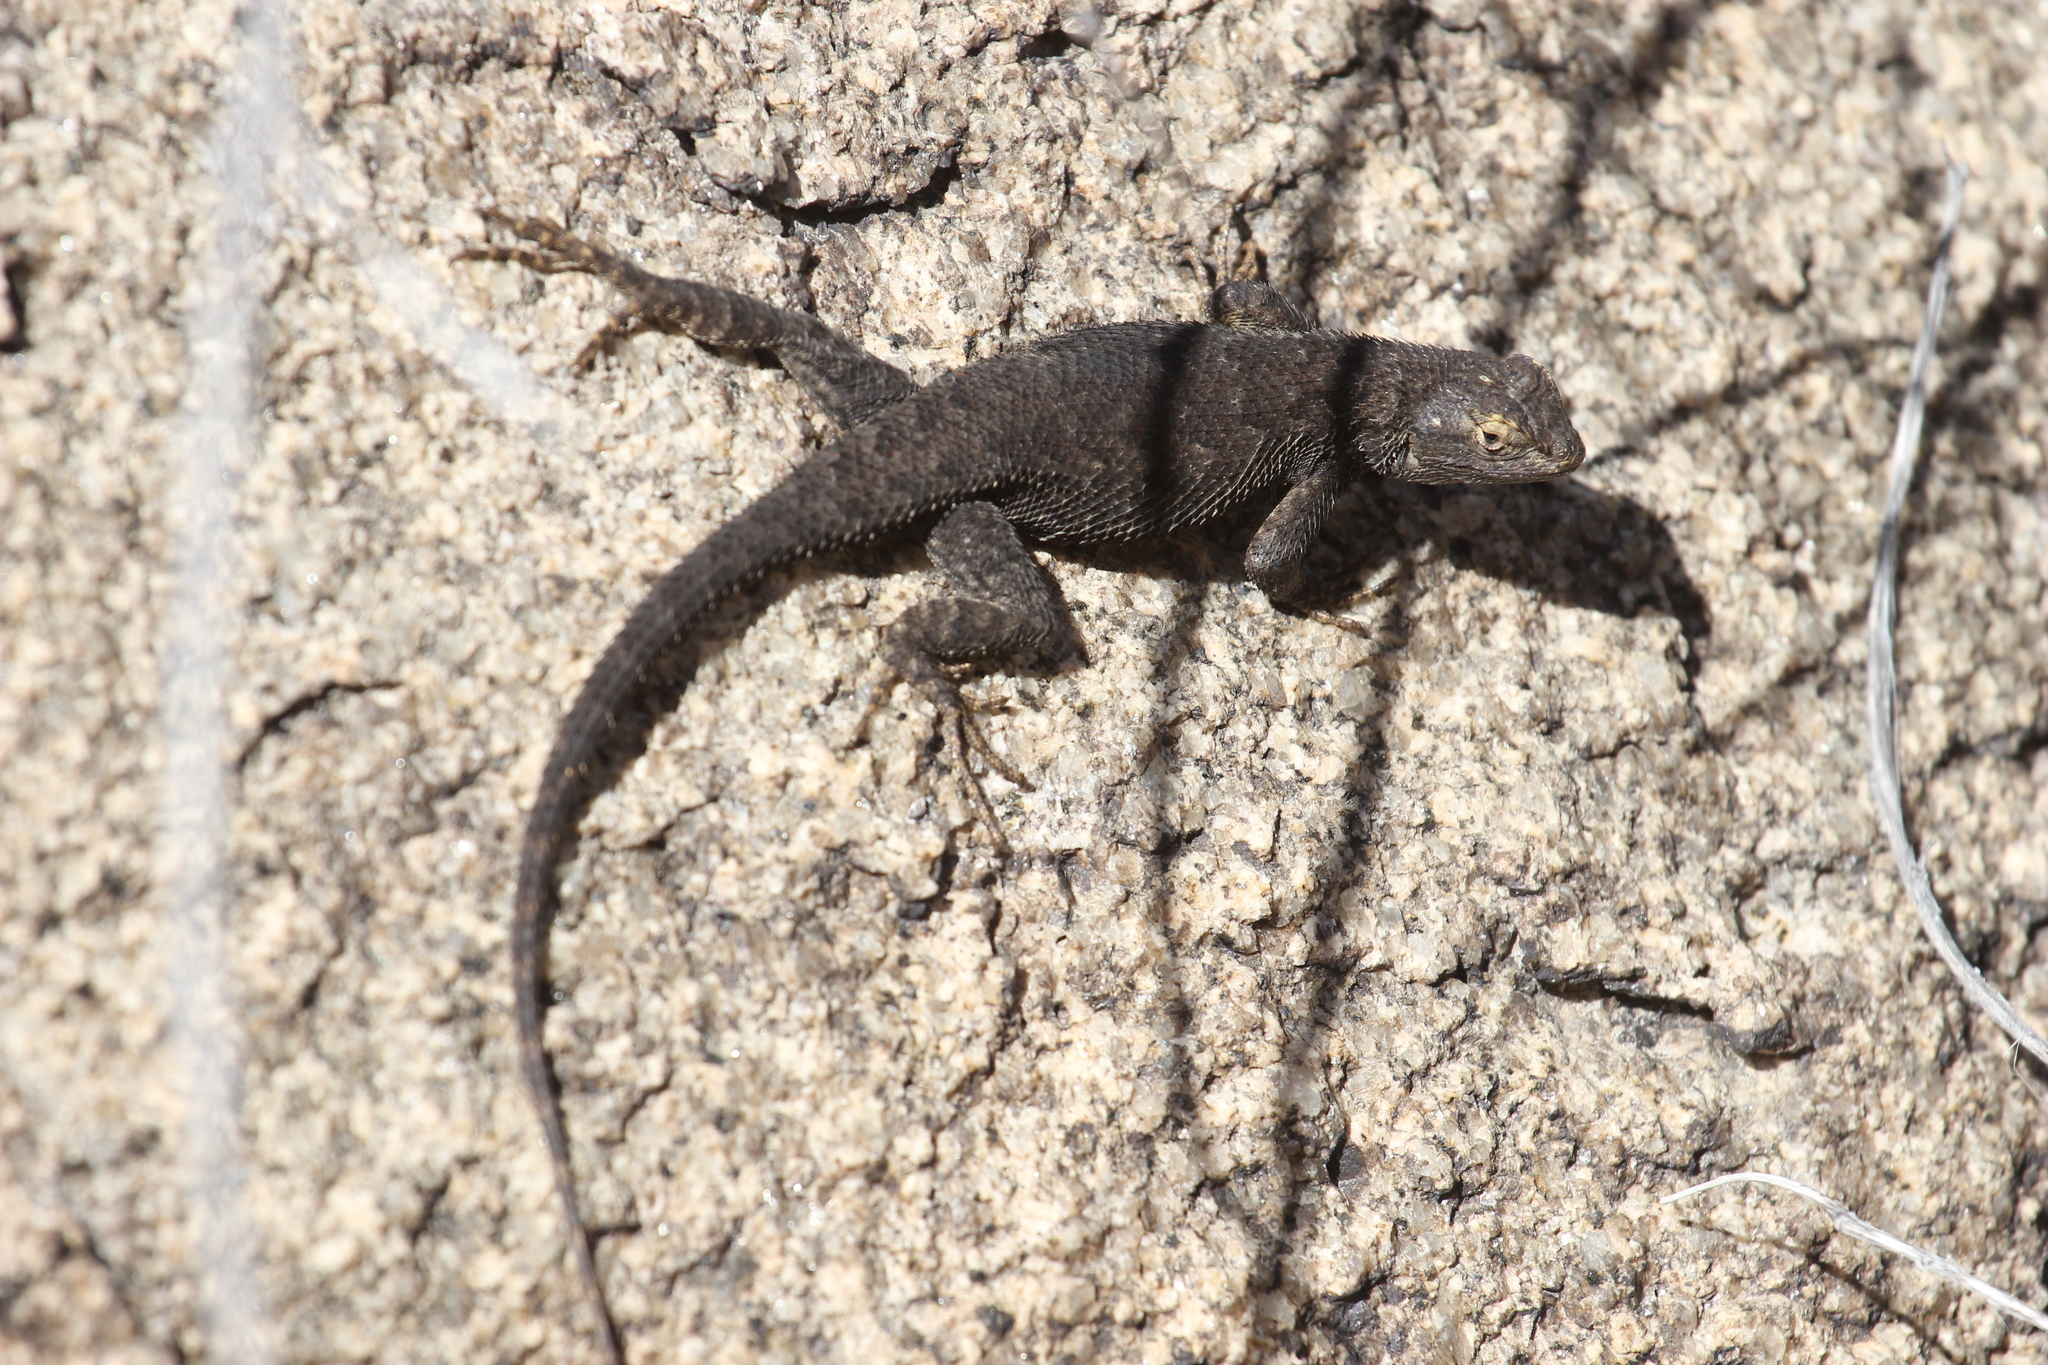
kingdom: Animalia
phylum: Chordata
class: Squamata
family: Phrynosomatidae
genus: Sceloporus
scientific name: Sceloporus occidentalis
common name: Western fence lizard
